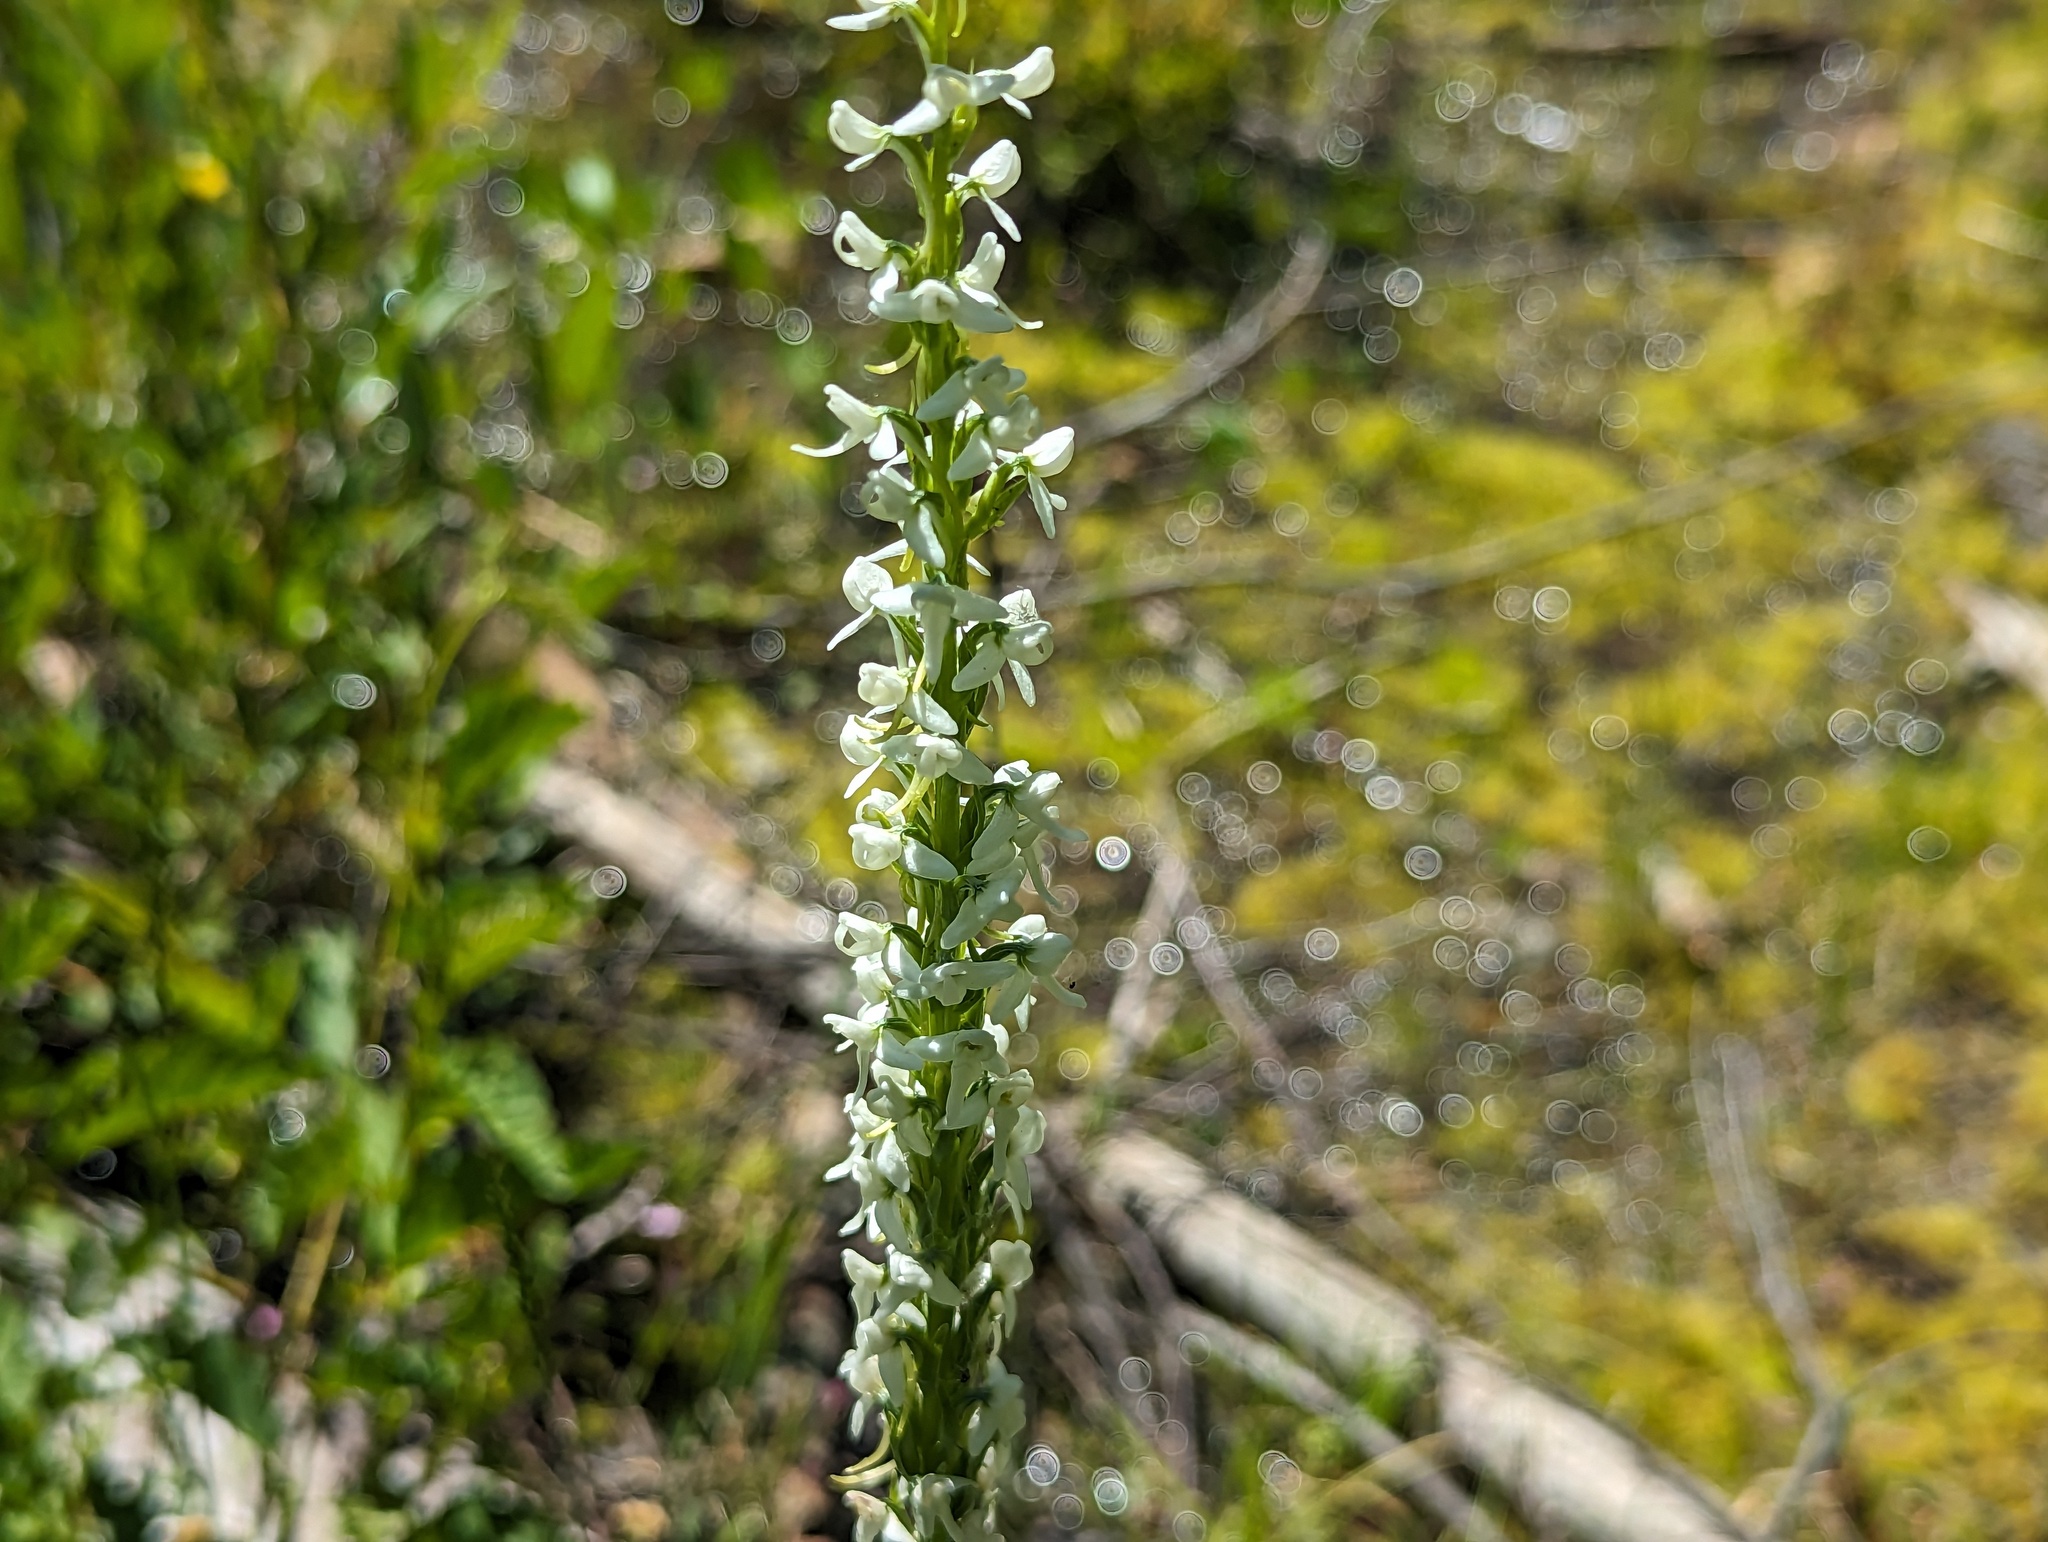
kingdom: Plantae
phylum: Tracheophyta
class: Liliopsida
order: Asparagales
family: Orchidaceae
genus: Platanthera
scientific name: Platanthera dilatata
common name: Bog candles
